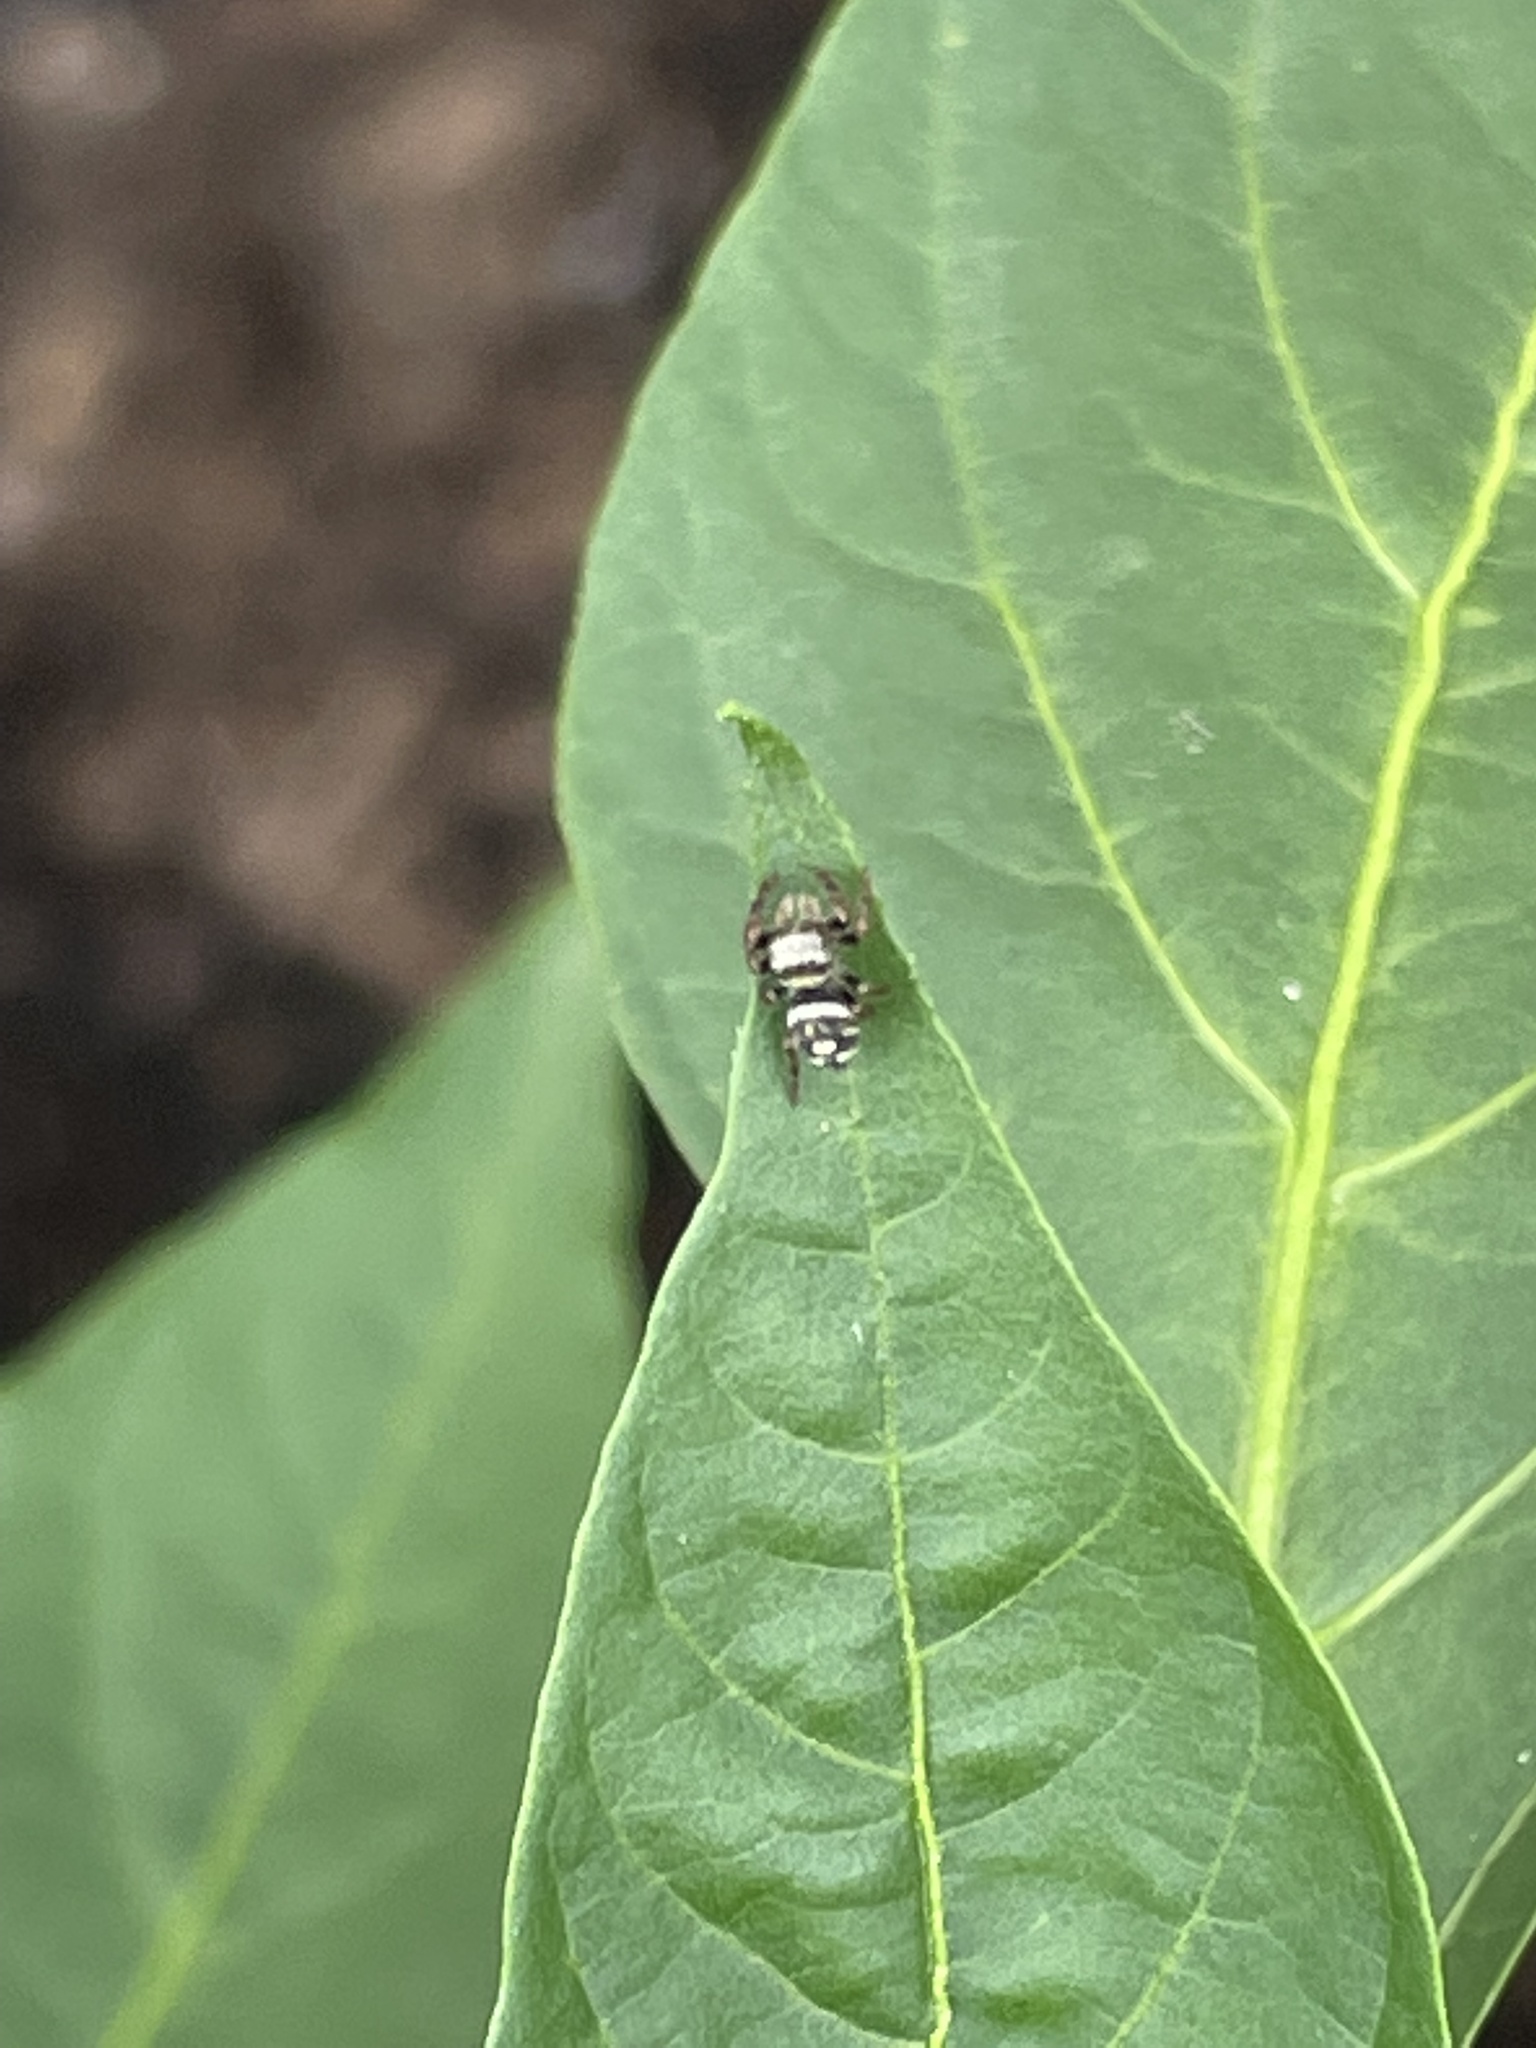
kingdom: Animalia
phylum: Arthropoda
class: Arachnida
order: Araneae
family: Salticidae
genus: Phidippus
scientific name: Phidippus audax
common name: Bold jumper
